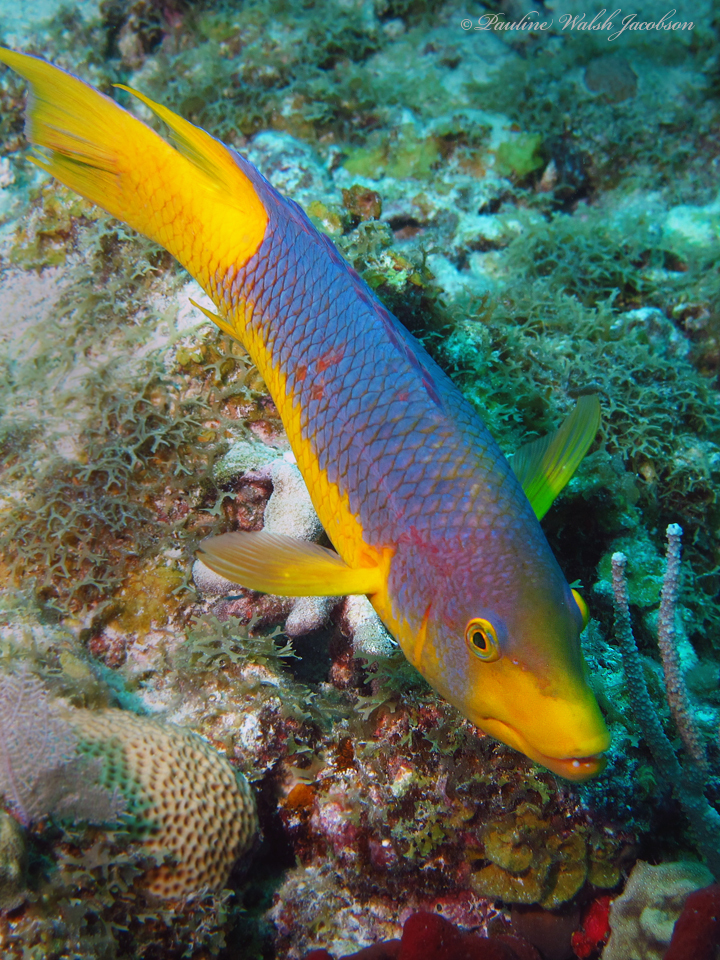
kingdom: Animalia
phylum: Chordata
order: Perciformes
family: Labridae
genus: Bodianus
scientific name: Bodianus rufus
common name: Spanish hogfish
